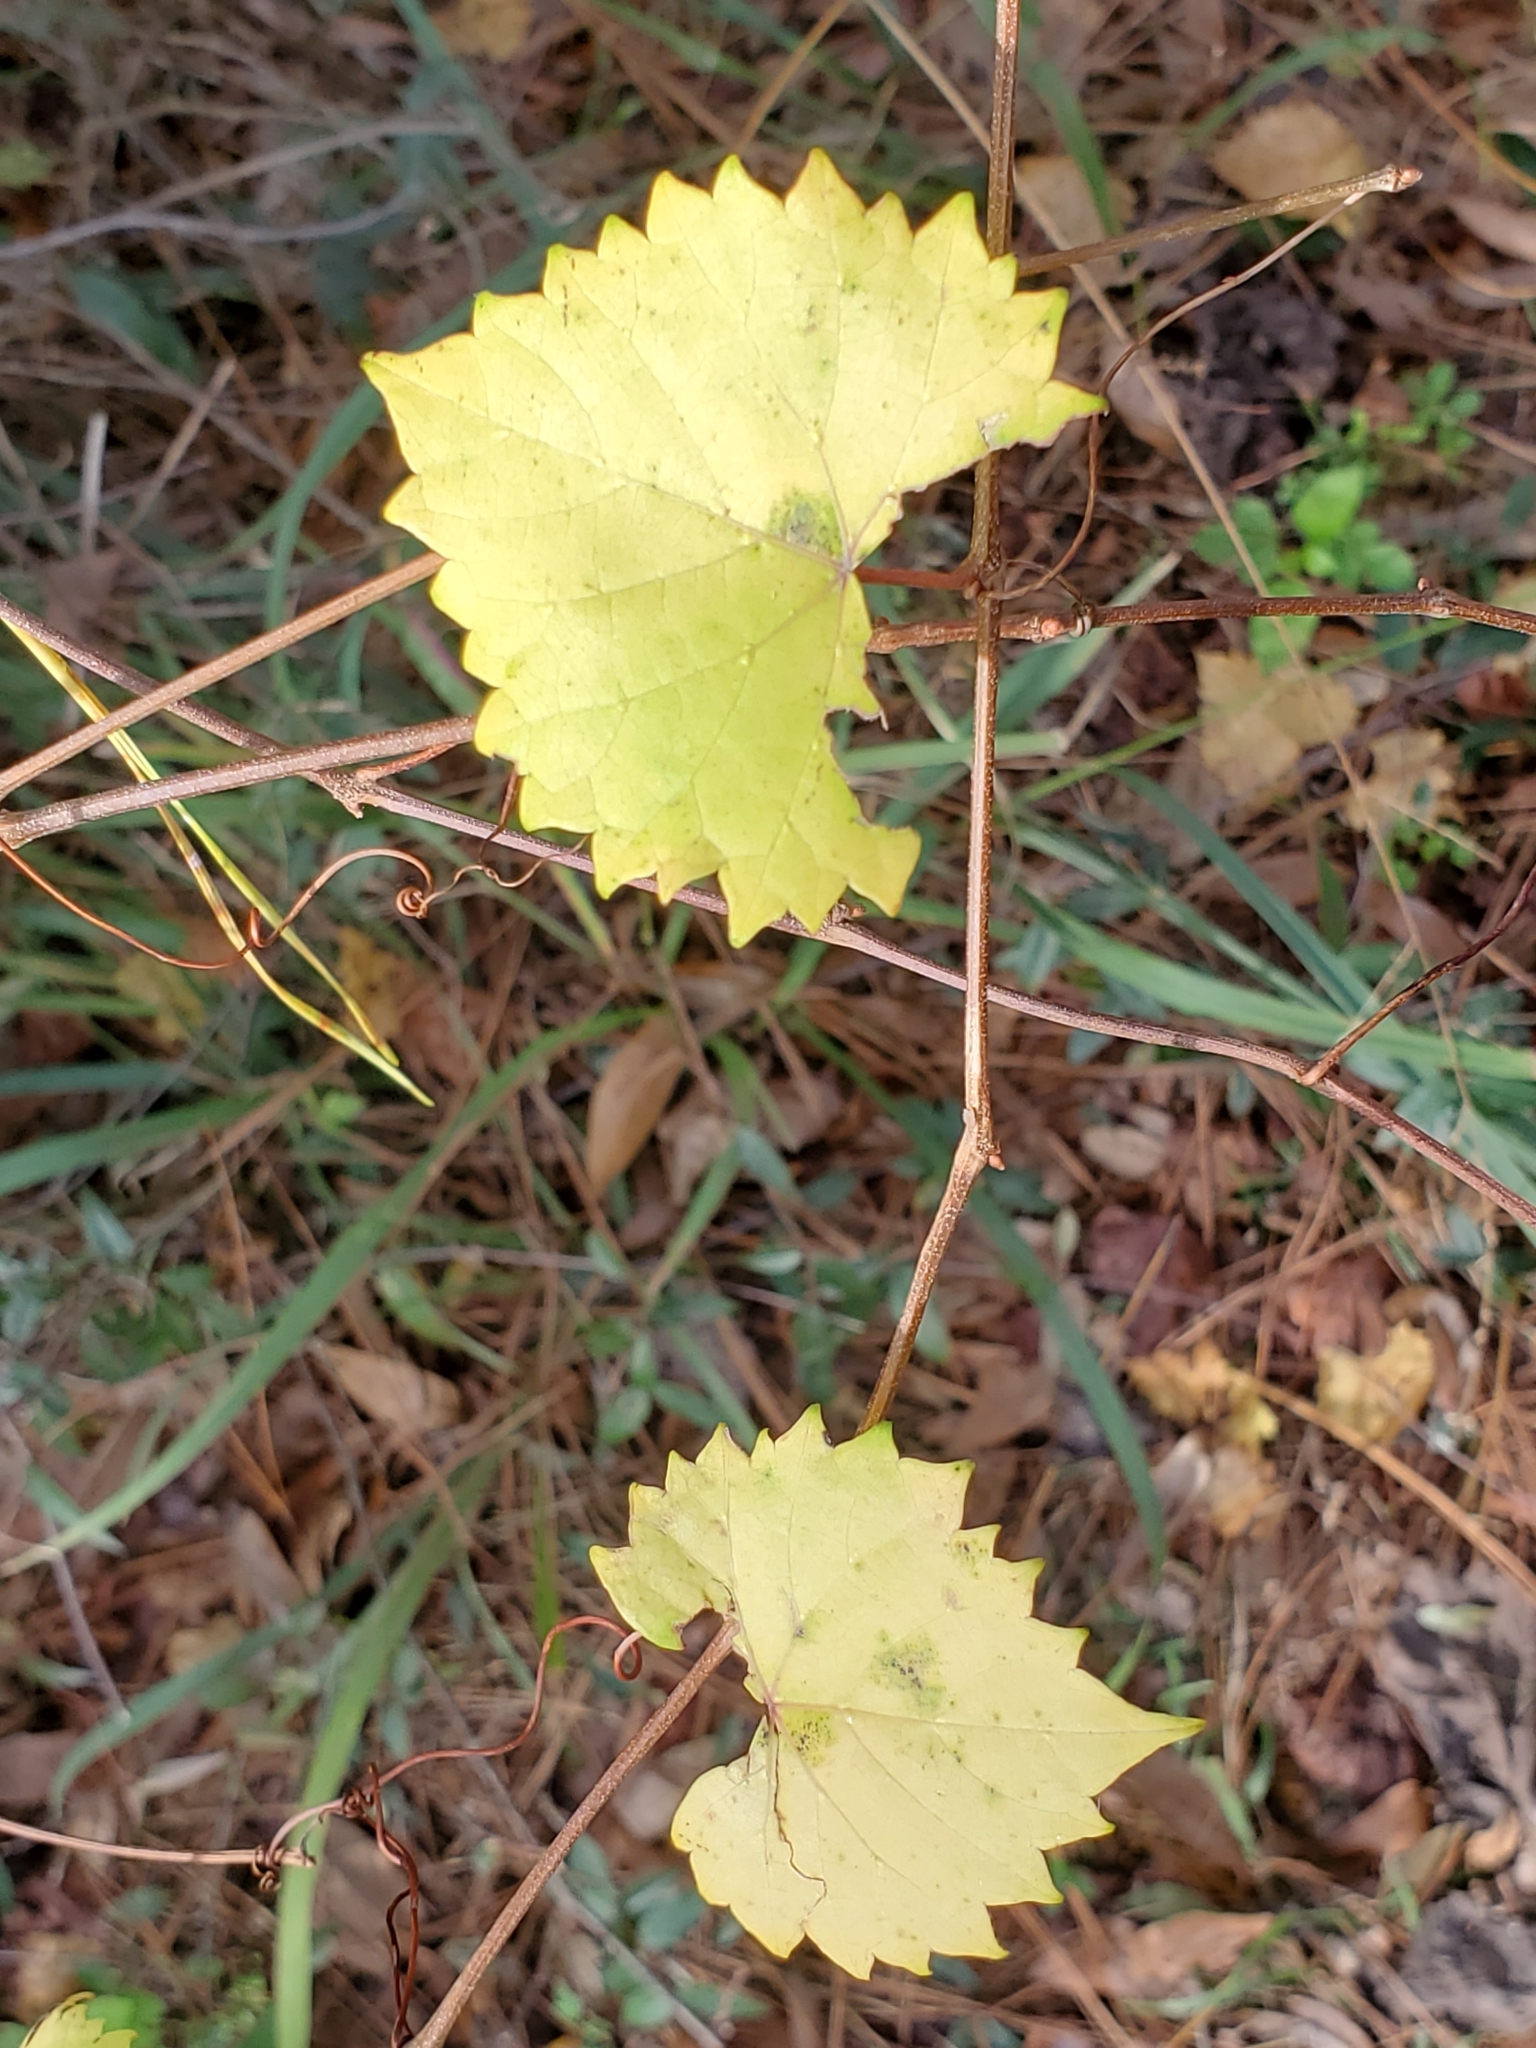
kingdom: Plantae
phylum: Tracheophyta
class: Magnoliopsida
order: Vitales
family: Vitaceae
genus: Vitis
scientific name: Vitis rotundifolia
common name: Muscadine grape
